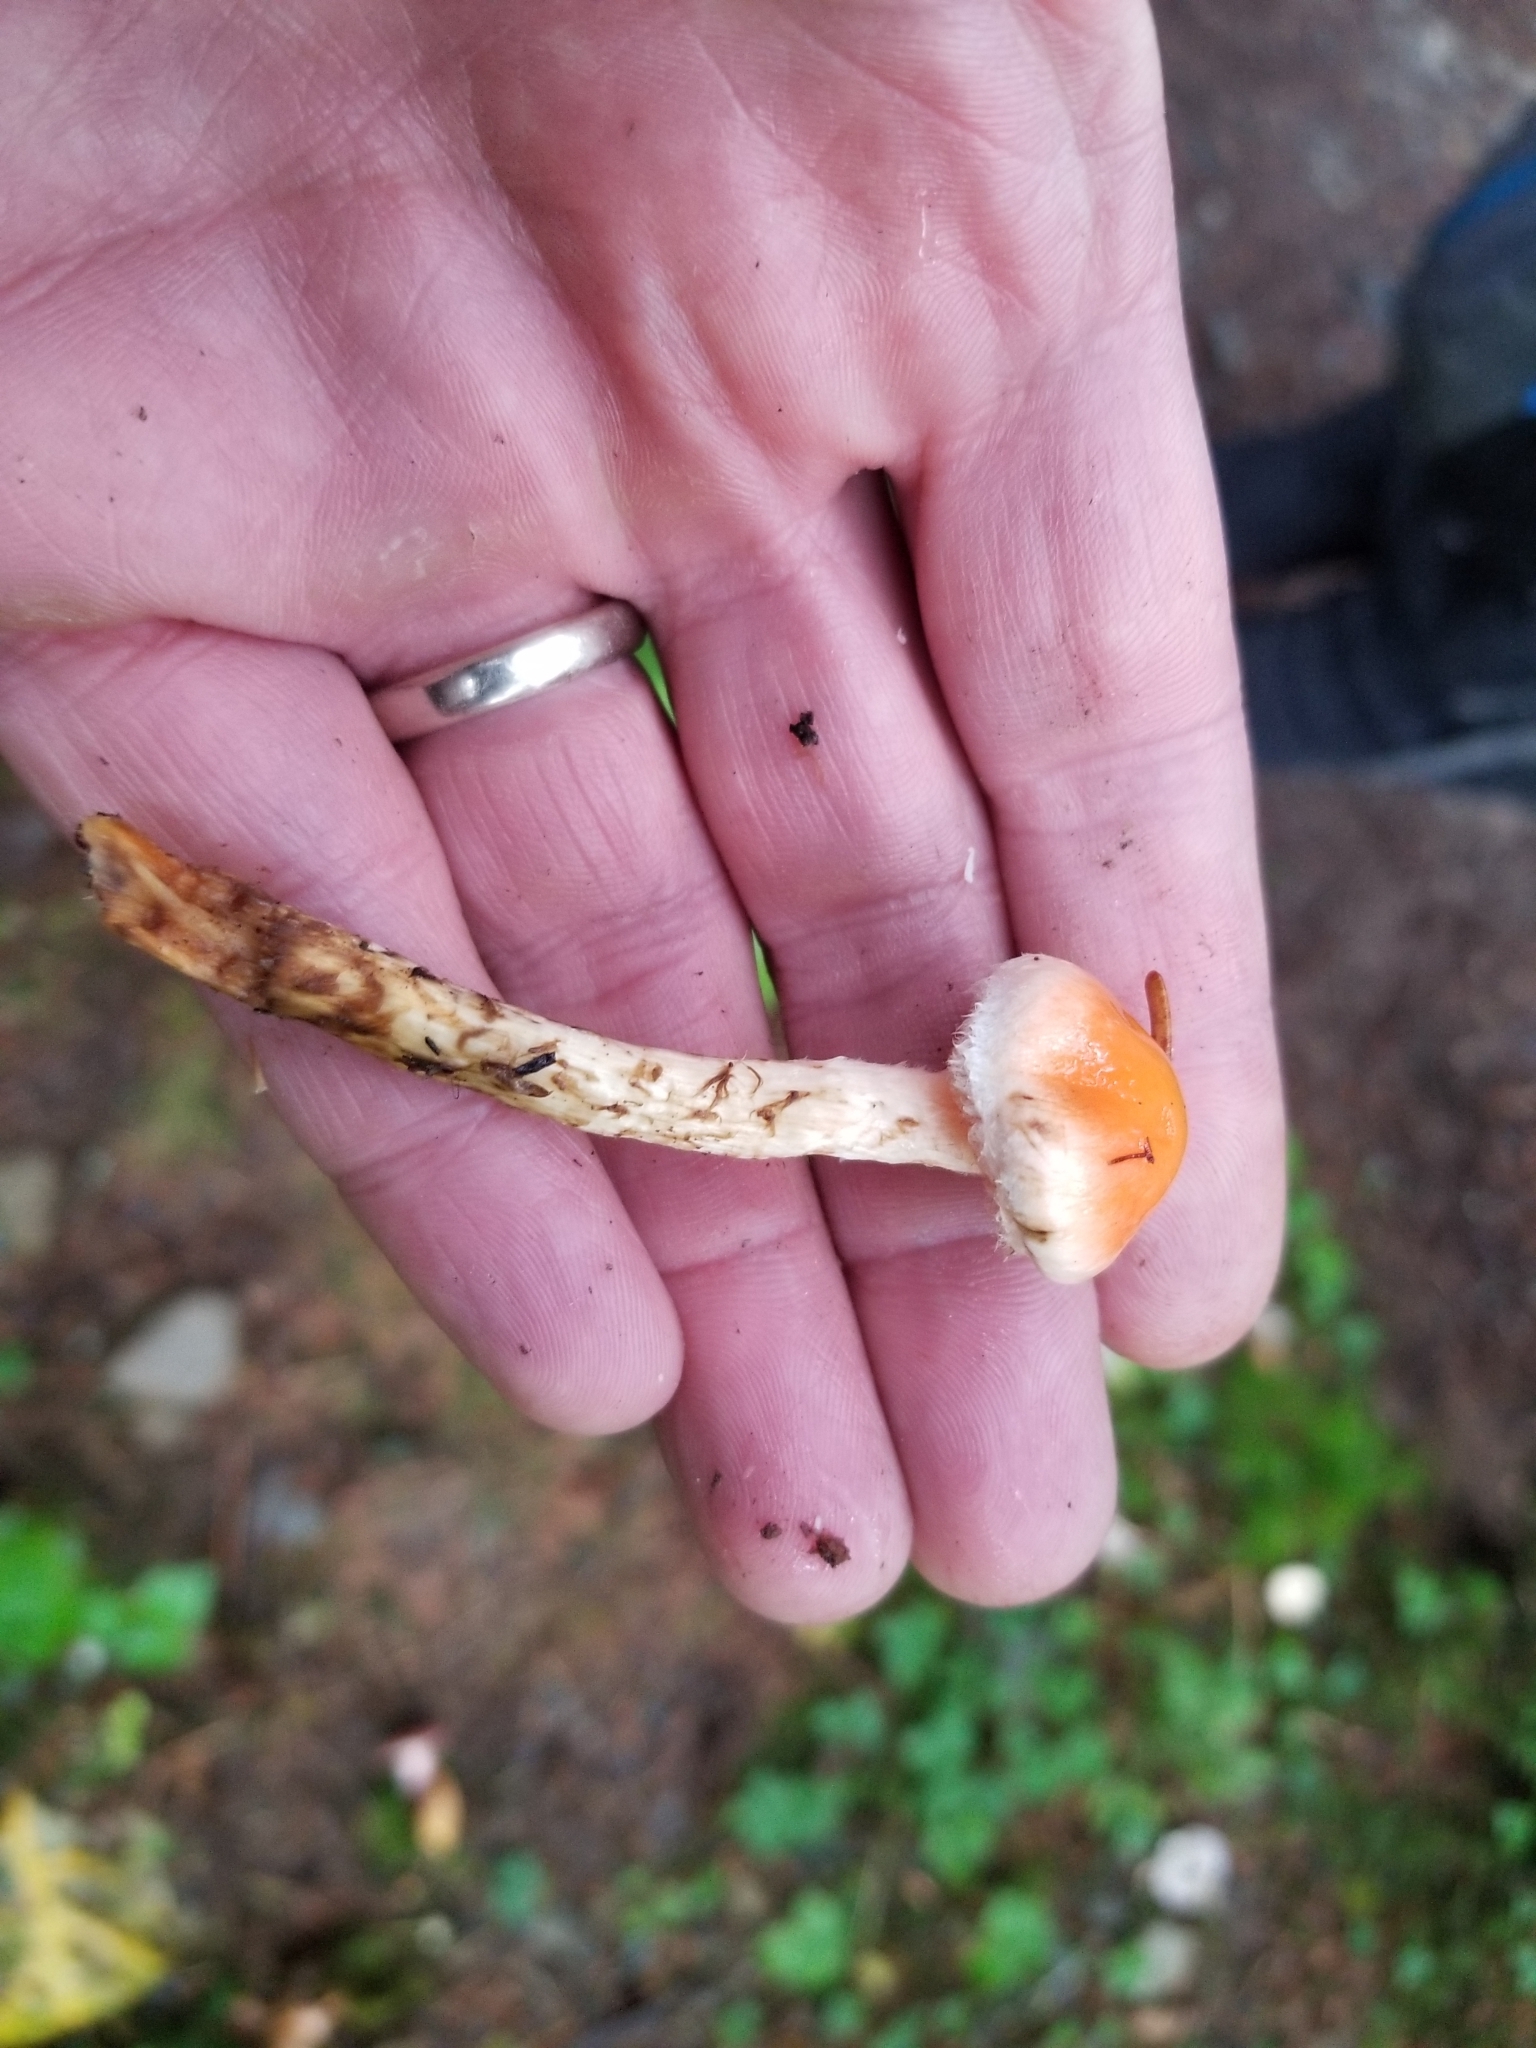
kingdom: Fungi
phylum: Basidiomycota
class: Agaricomycetes
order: Agaricales
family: Strophariaceae
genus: Pyrrhulomyces
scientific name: Pyrrhulomyces astragalinus
